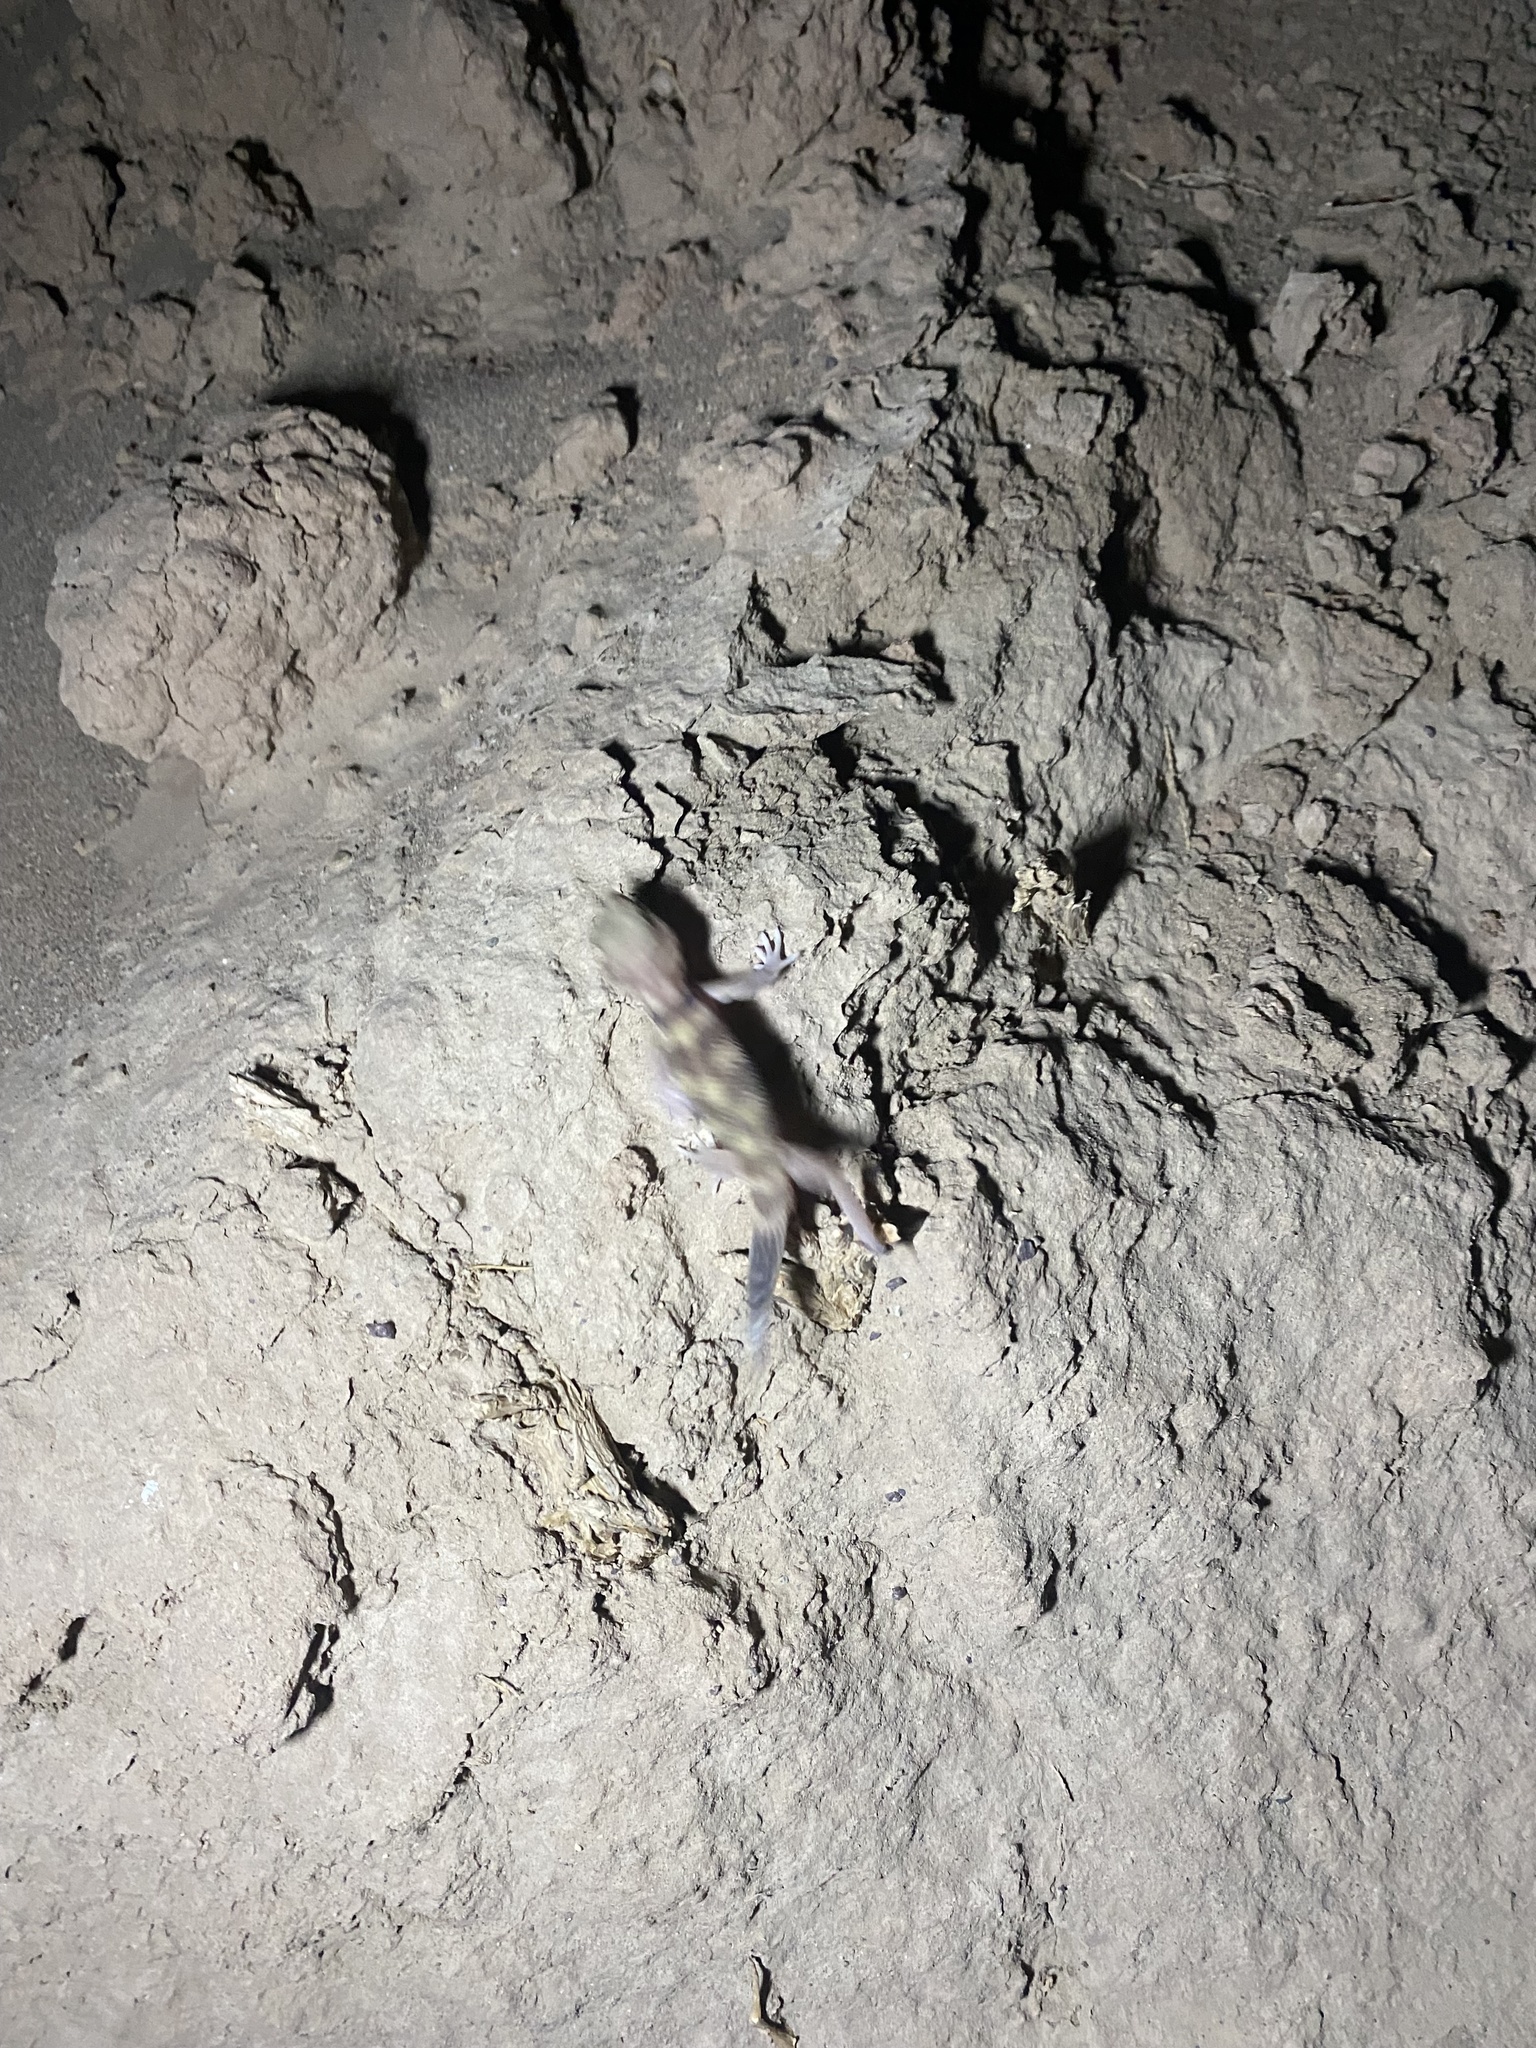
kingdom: Animalia
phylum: Chordata
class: Squamata
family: Sphaerodactylidae
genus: Teratoscincus
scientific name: Teratoscincus bedriagai
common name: Bedriaga's plate-tailed gecko
